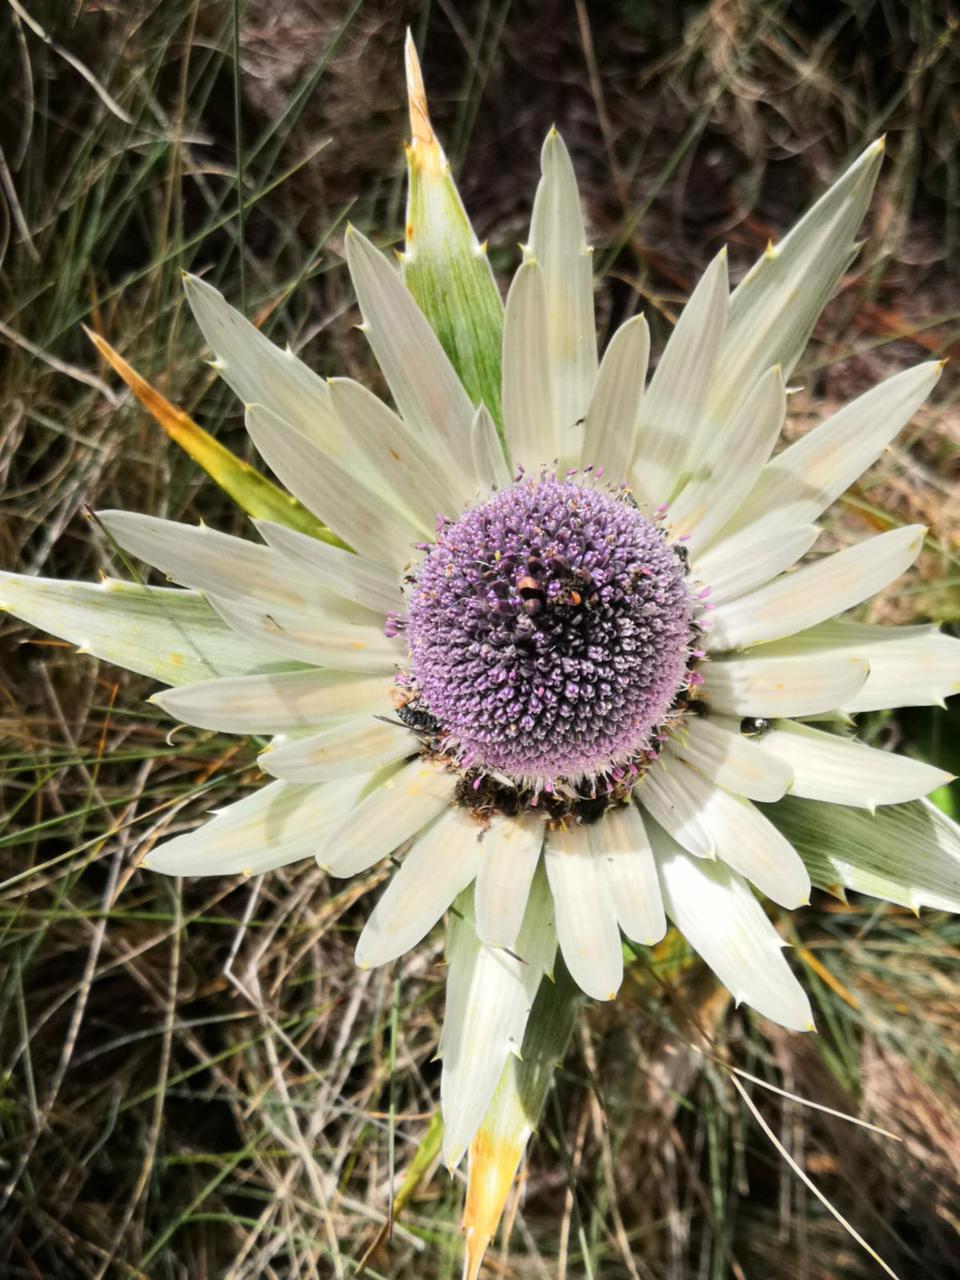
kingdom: Plantae
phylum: Tracheophyta
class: Magnoliopsida
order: Apiales
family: Apiaceae
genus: Eryngium
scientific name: Eryngium proteiflorum
